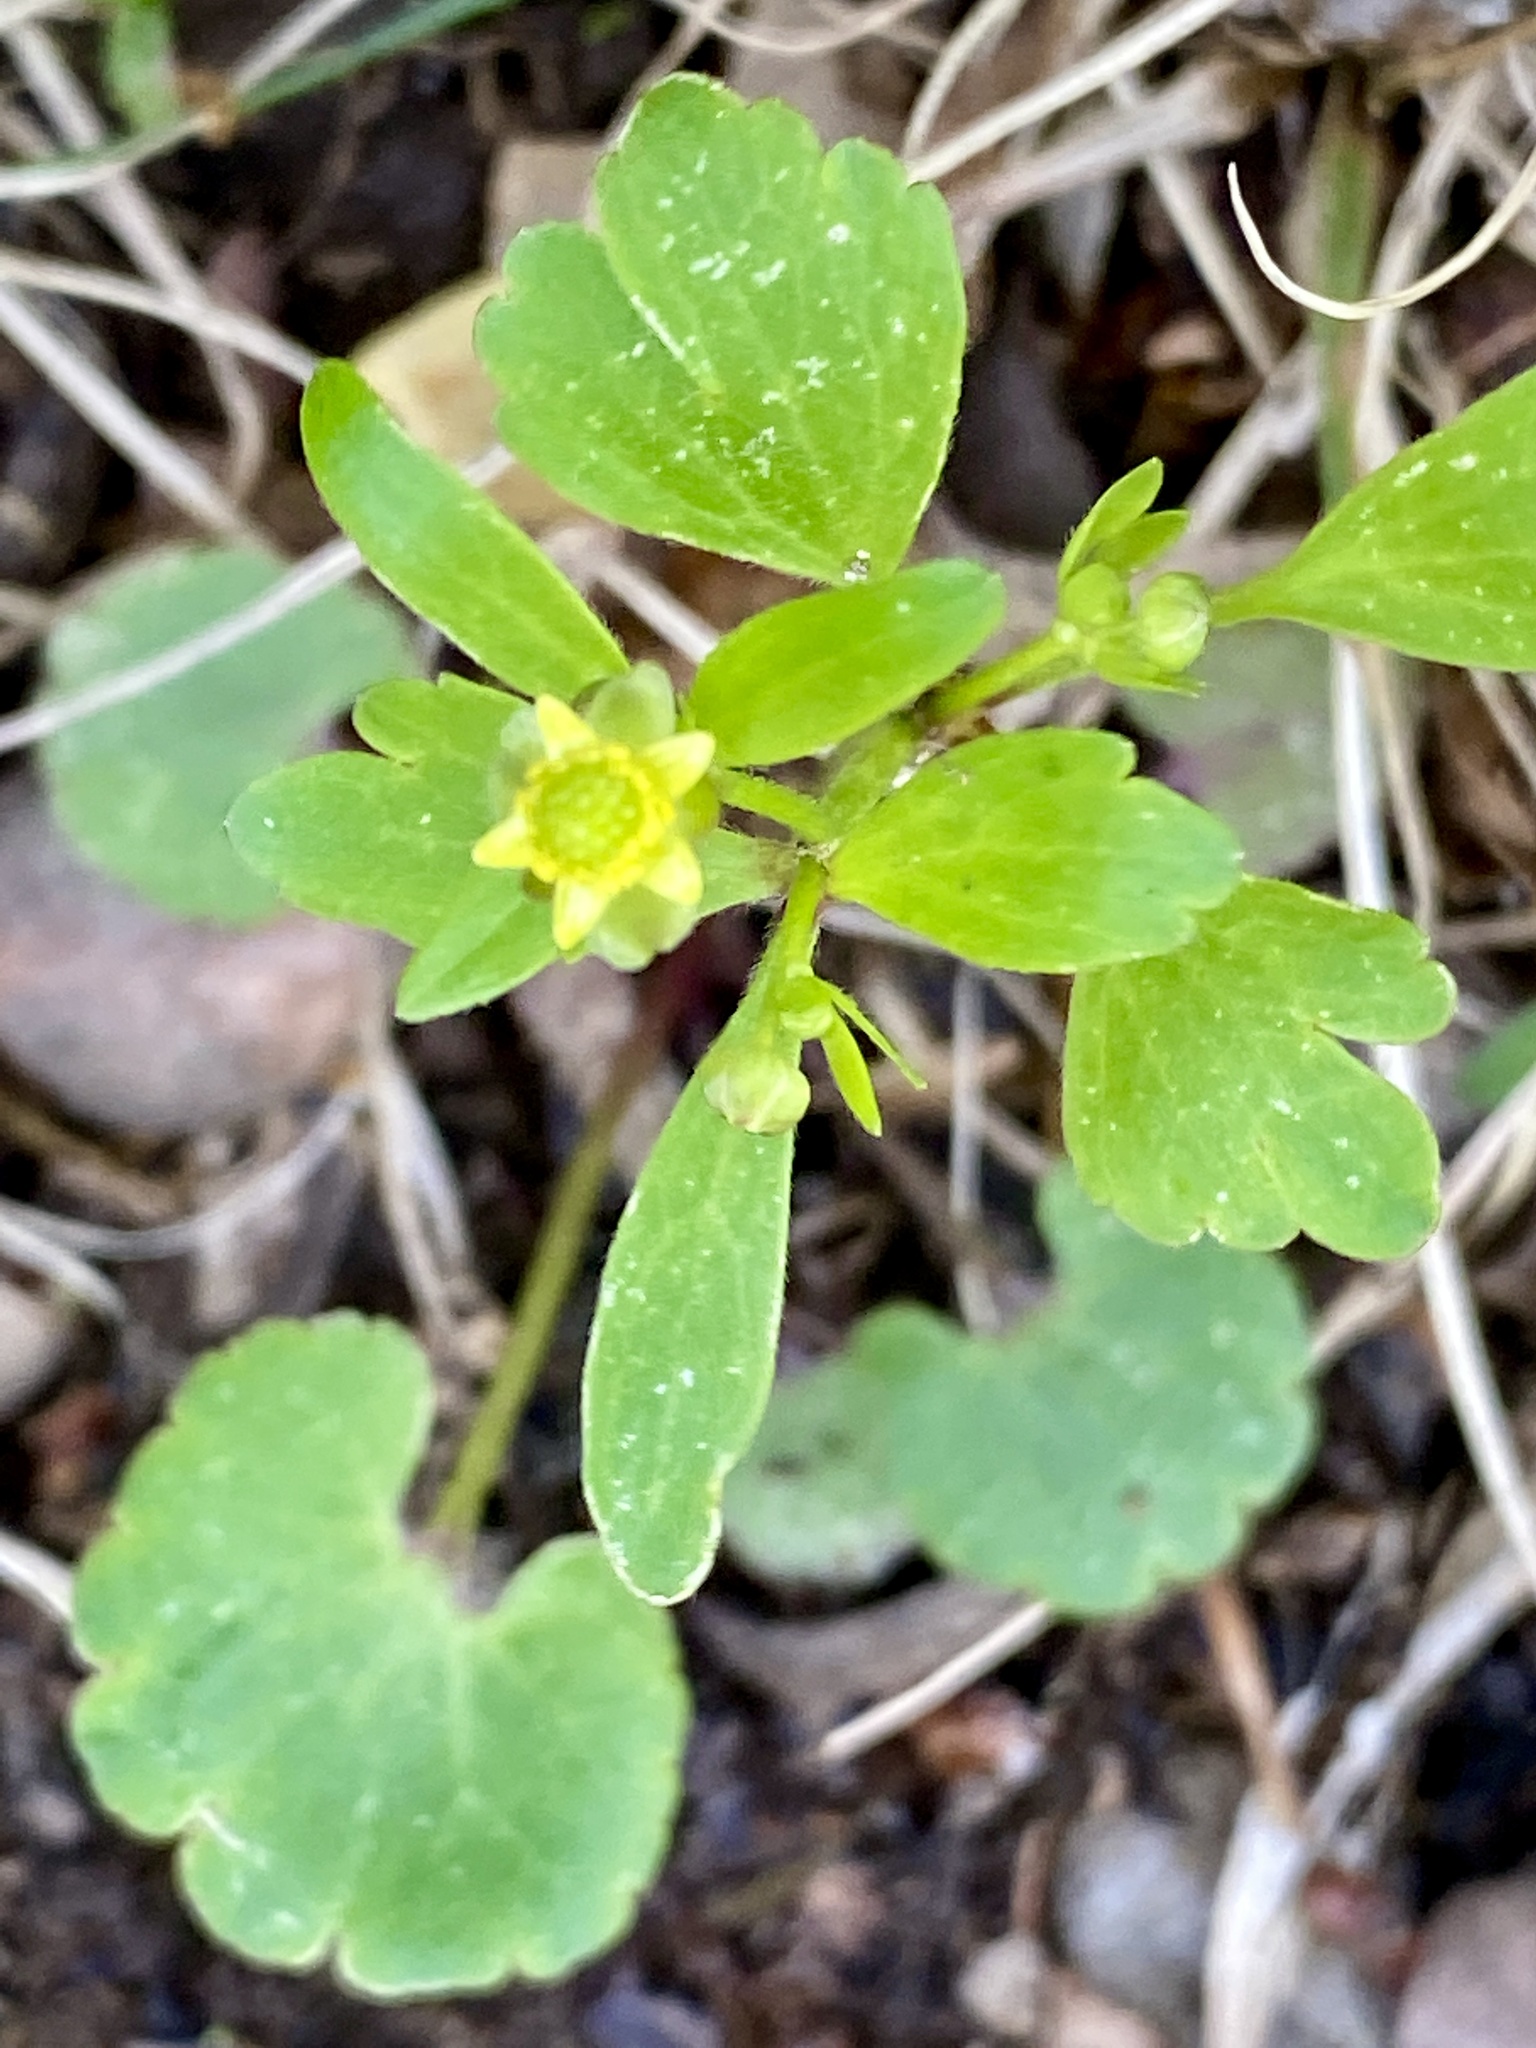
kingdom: Plantae
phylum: Tracheophyta
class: Magnoliopsida
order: Ranunculales
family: Ranunculaceae
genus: Ranunculus
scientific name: Ranunculus abortivus
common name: Early wood buttercup
